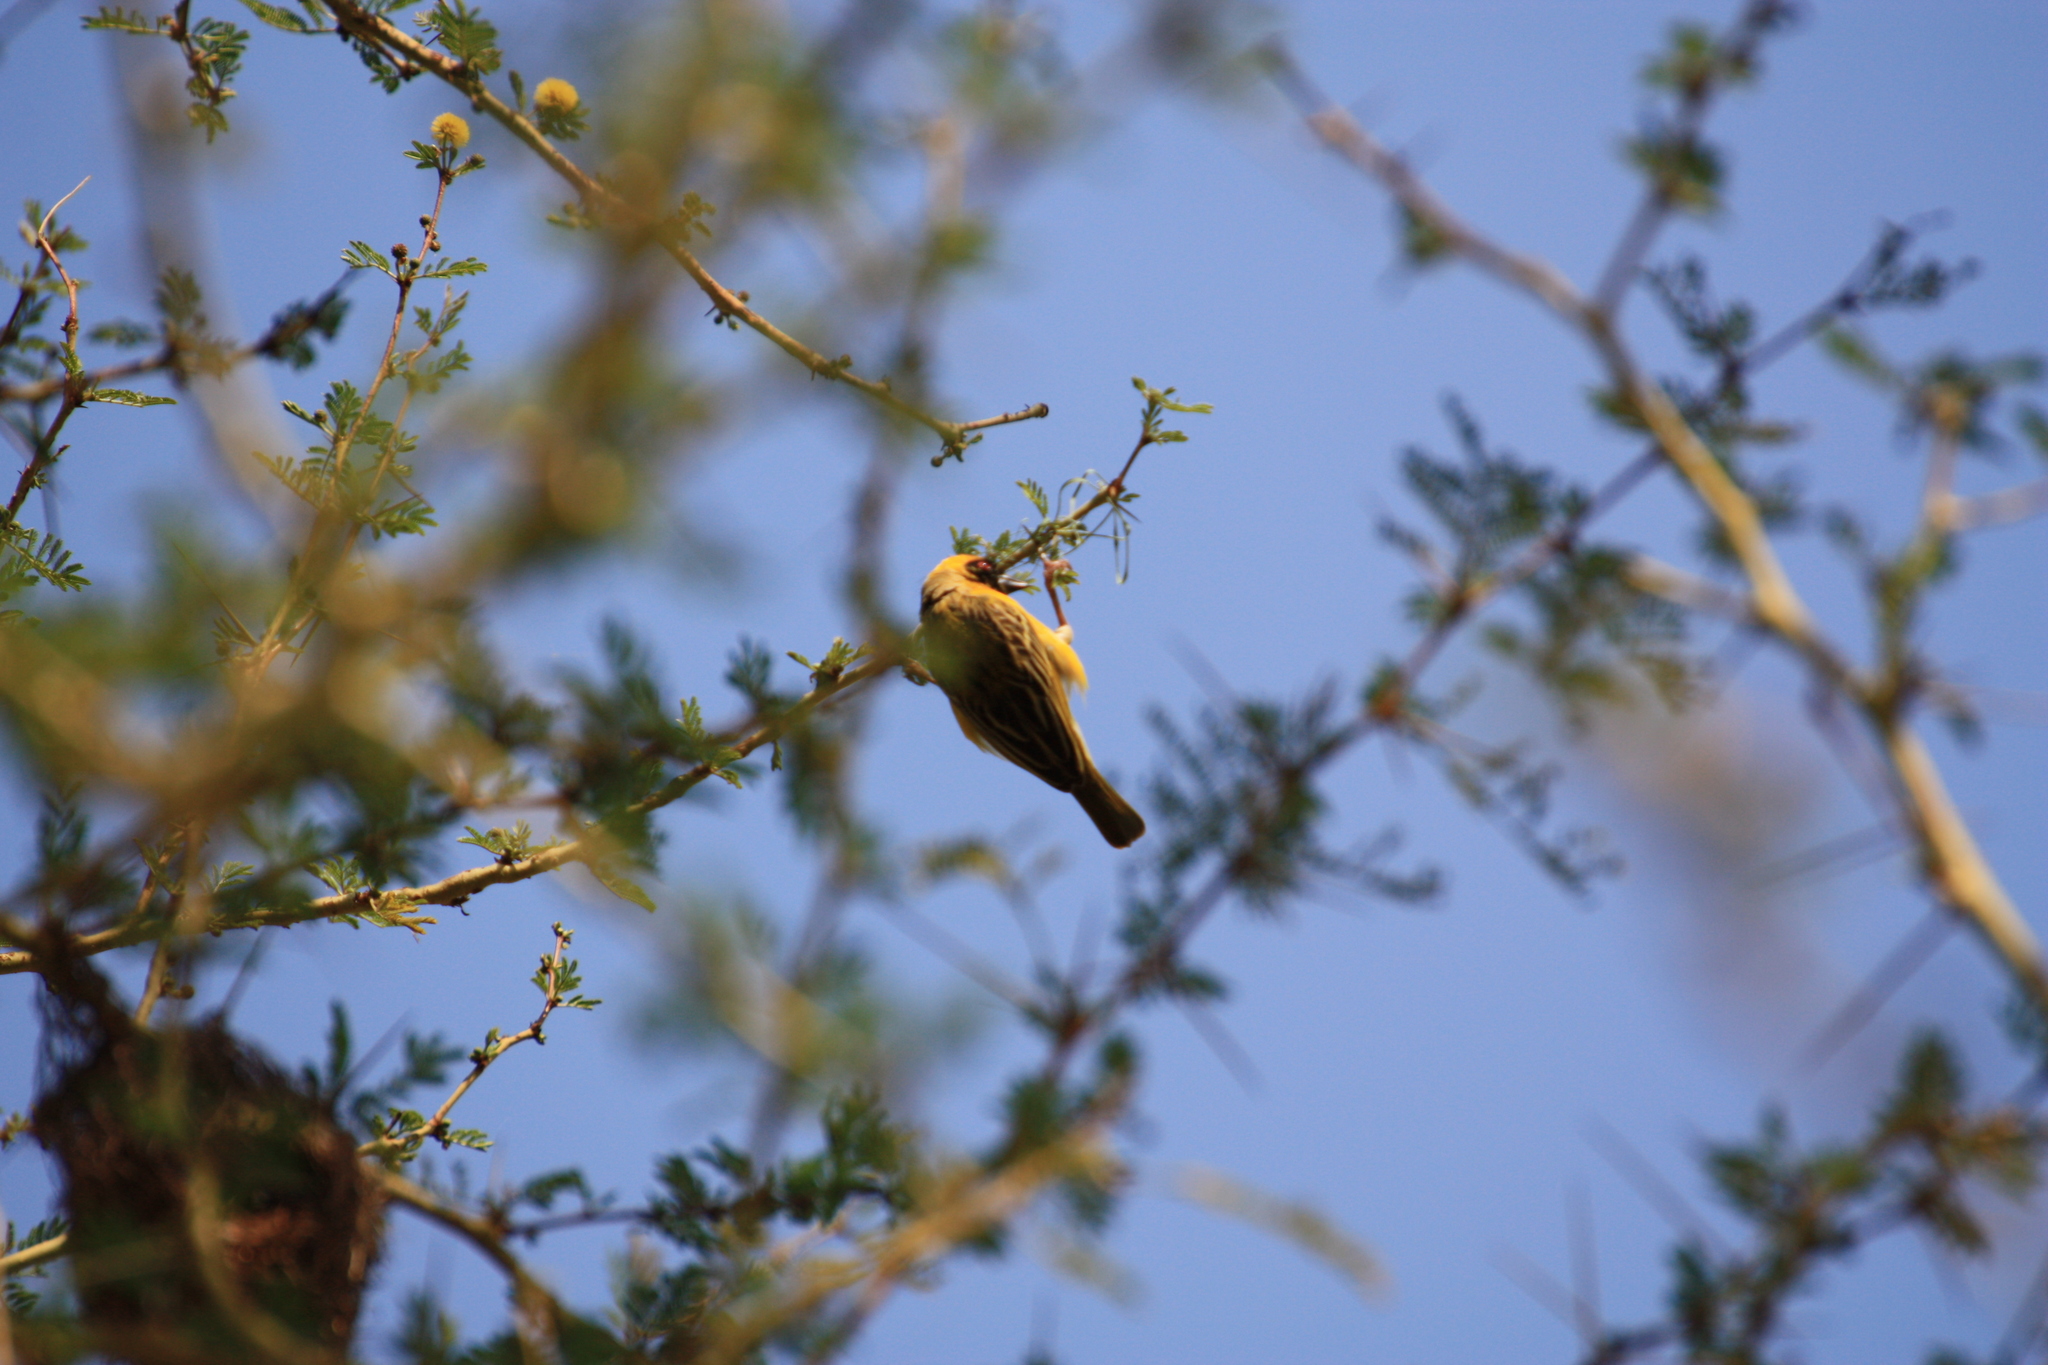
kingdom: Animalia
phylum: Chordata
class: Aves
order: Passeriformes
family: Ploceidae
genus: Ploceus
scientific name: Ploceus velatus
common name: Southern masked weaver
